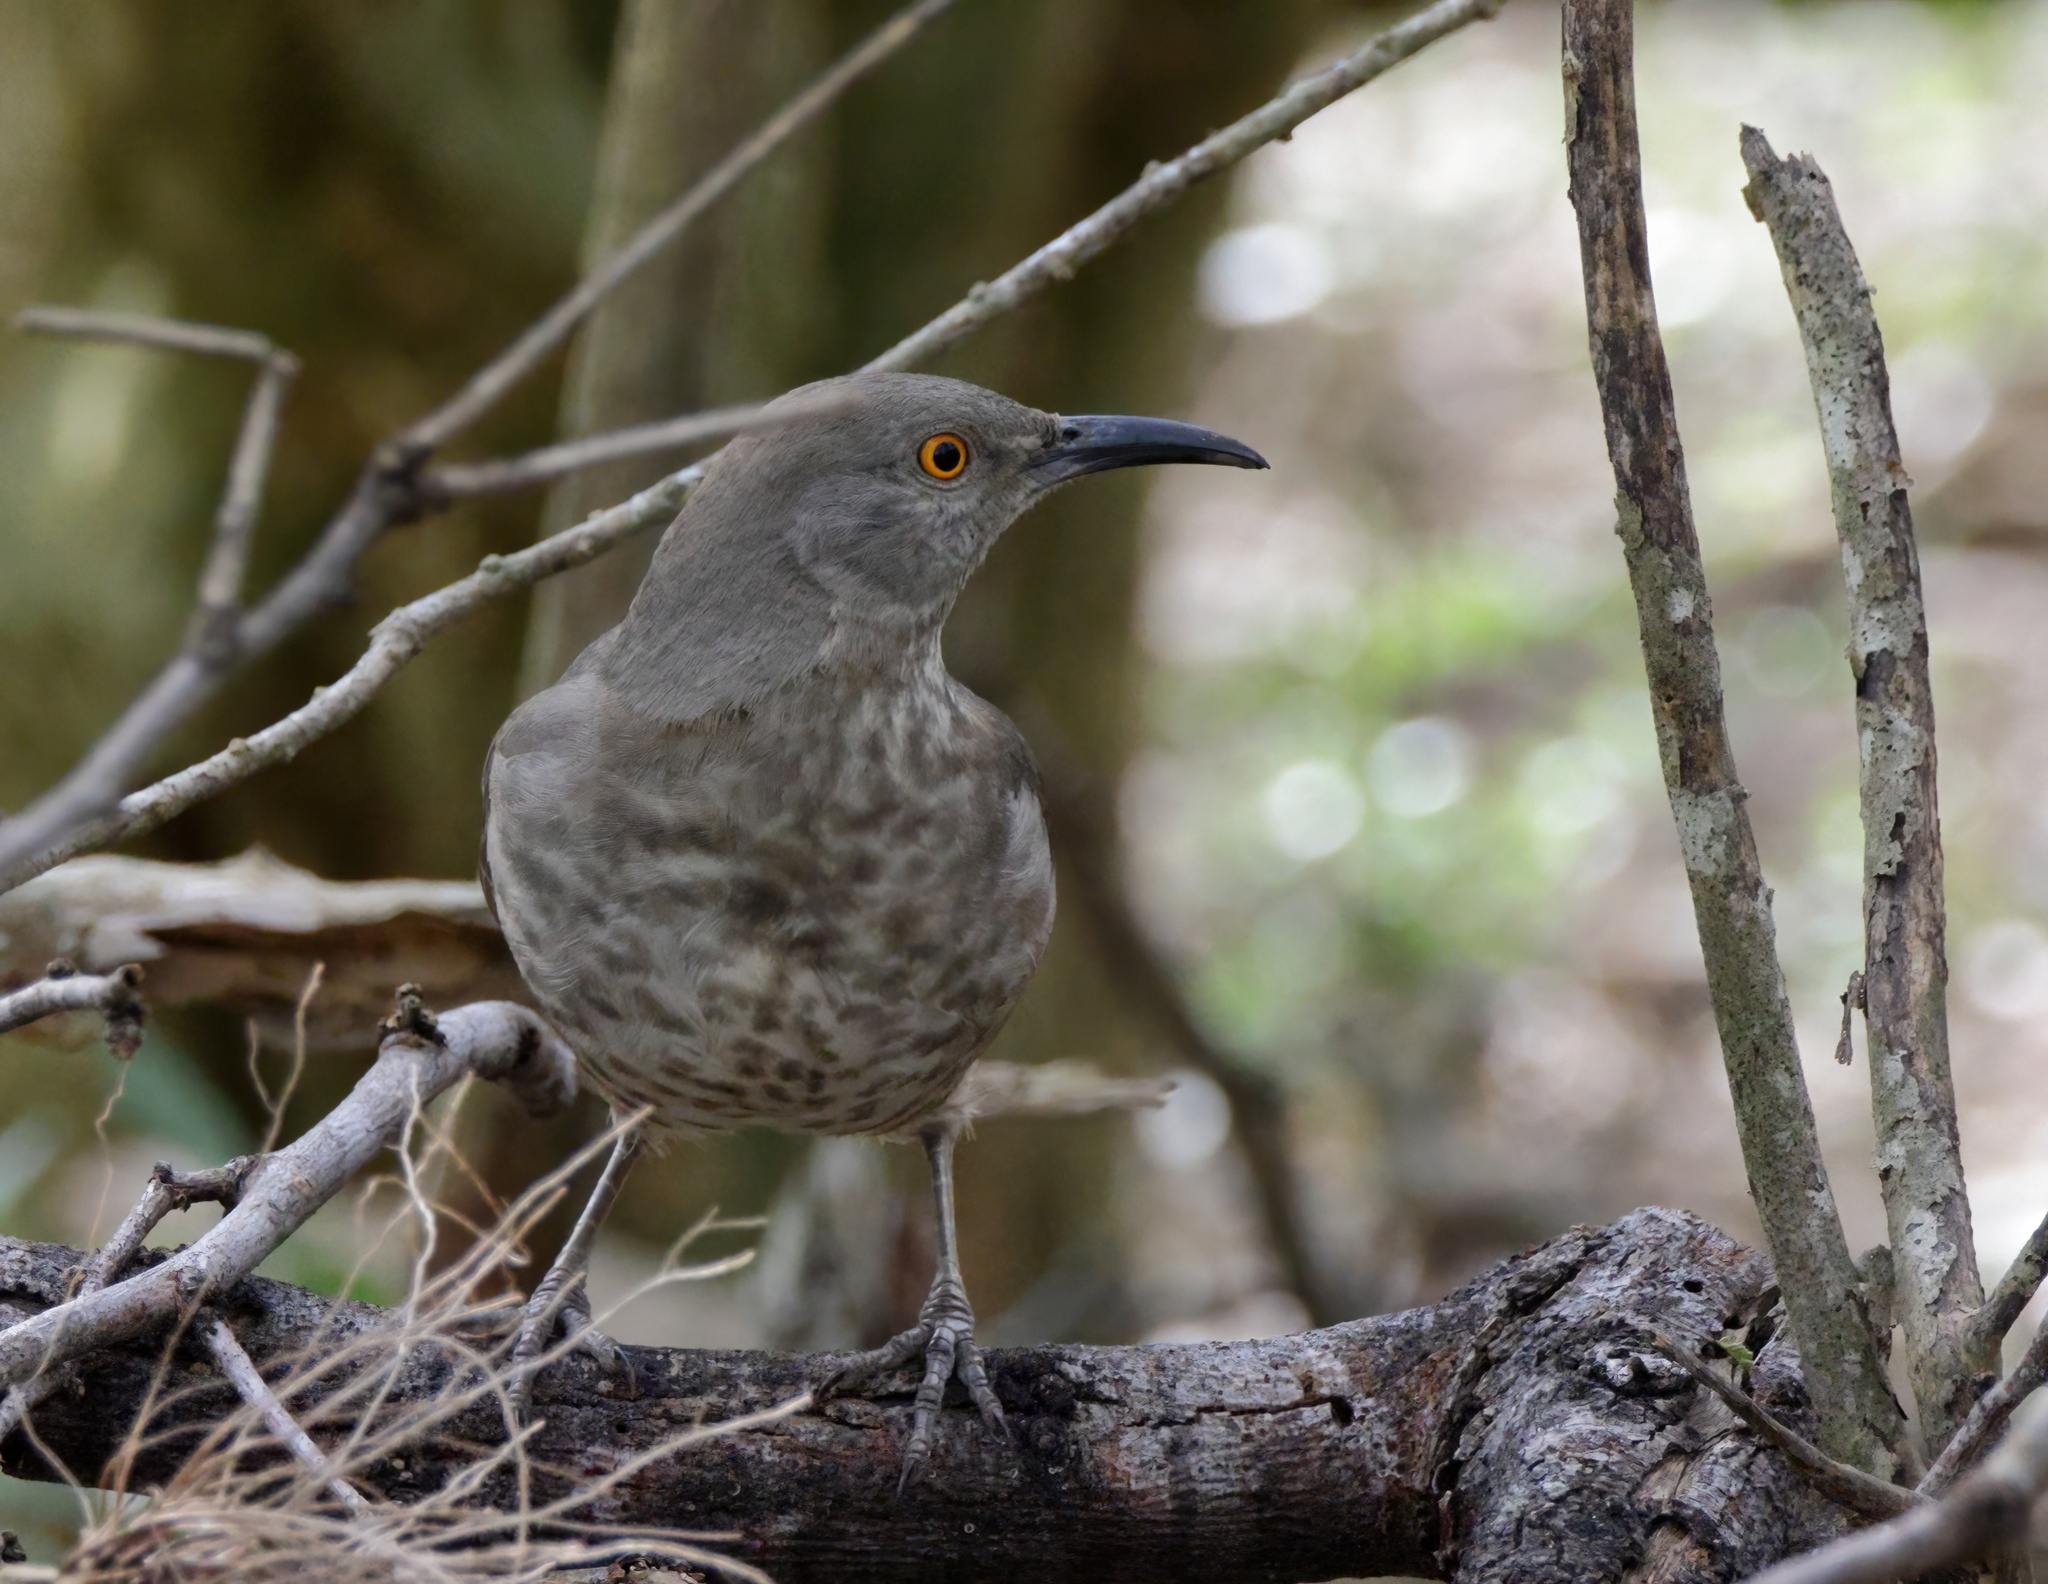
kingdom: Animalia
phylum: Chordata
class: Aves
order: Passeriformes
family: Mimidae
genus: Toxostoma
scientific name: Toxostoma curvirostre
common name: Curve-billed thrasher
